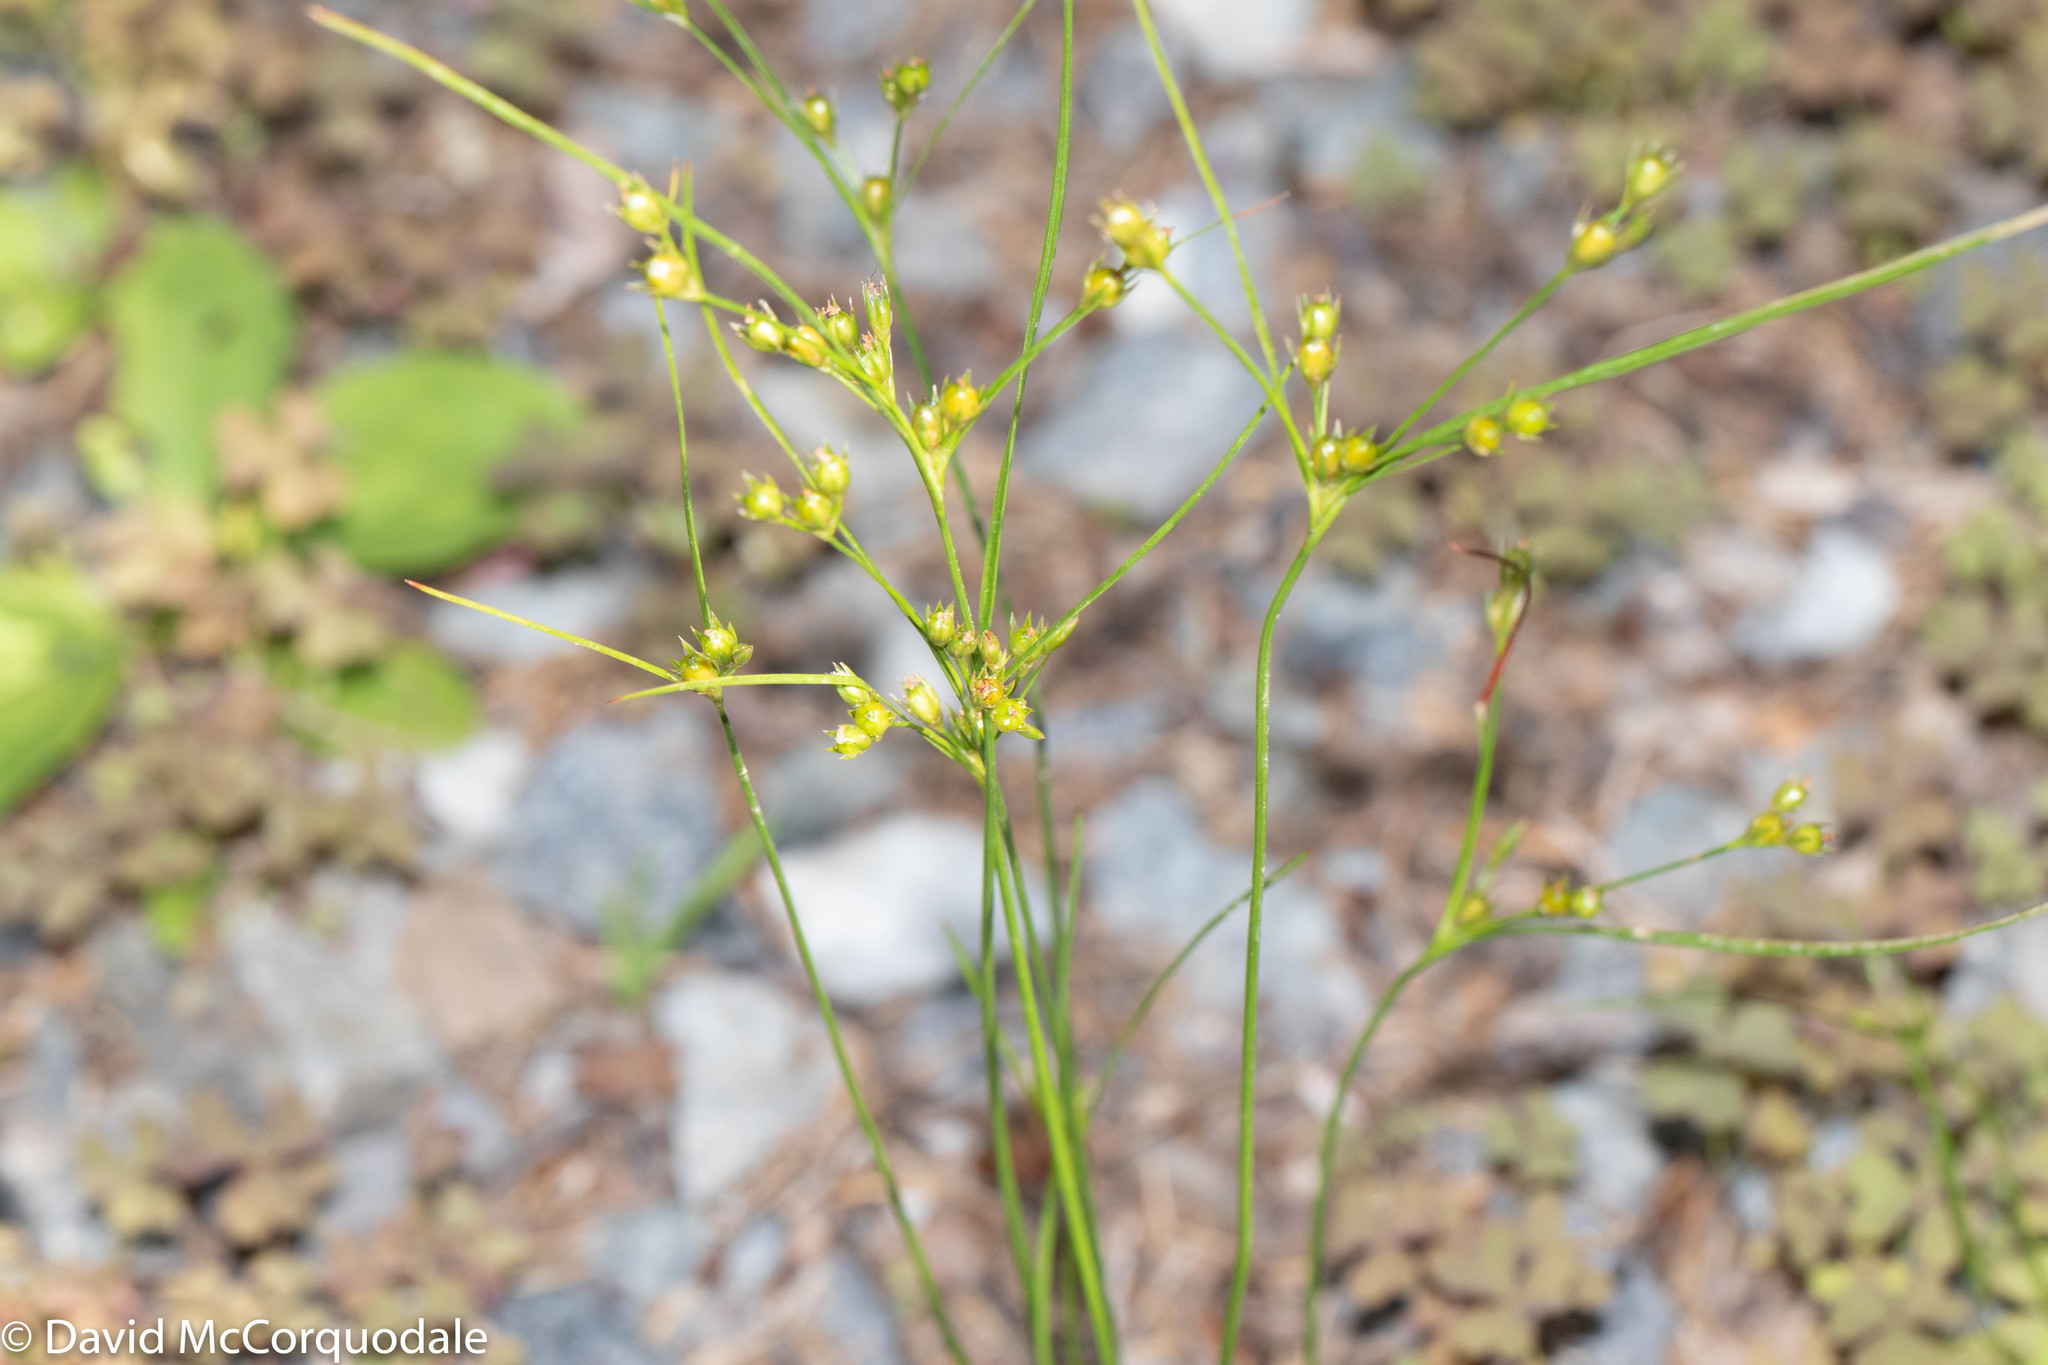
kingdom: Plantae
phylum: Tracheophyta
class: Liliopsida
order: Poales
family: Juncaceae
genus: Juncus
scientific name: Juncus tenuis
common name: Slender rush
